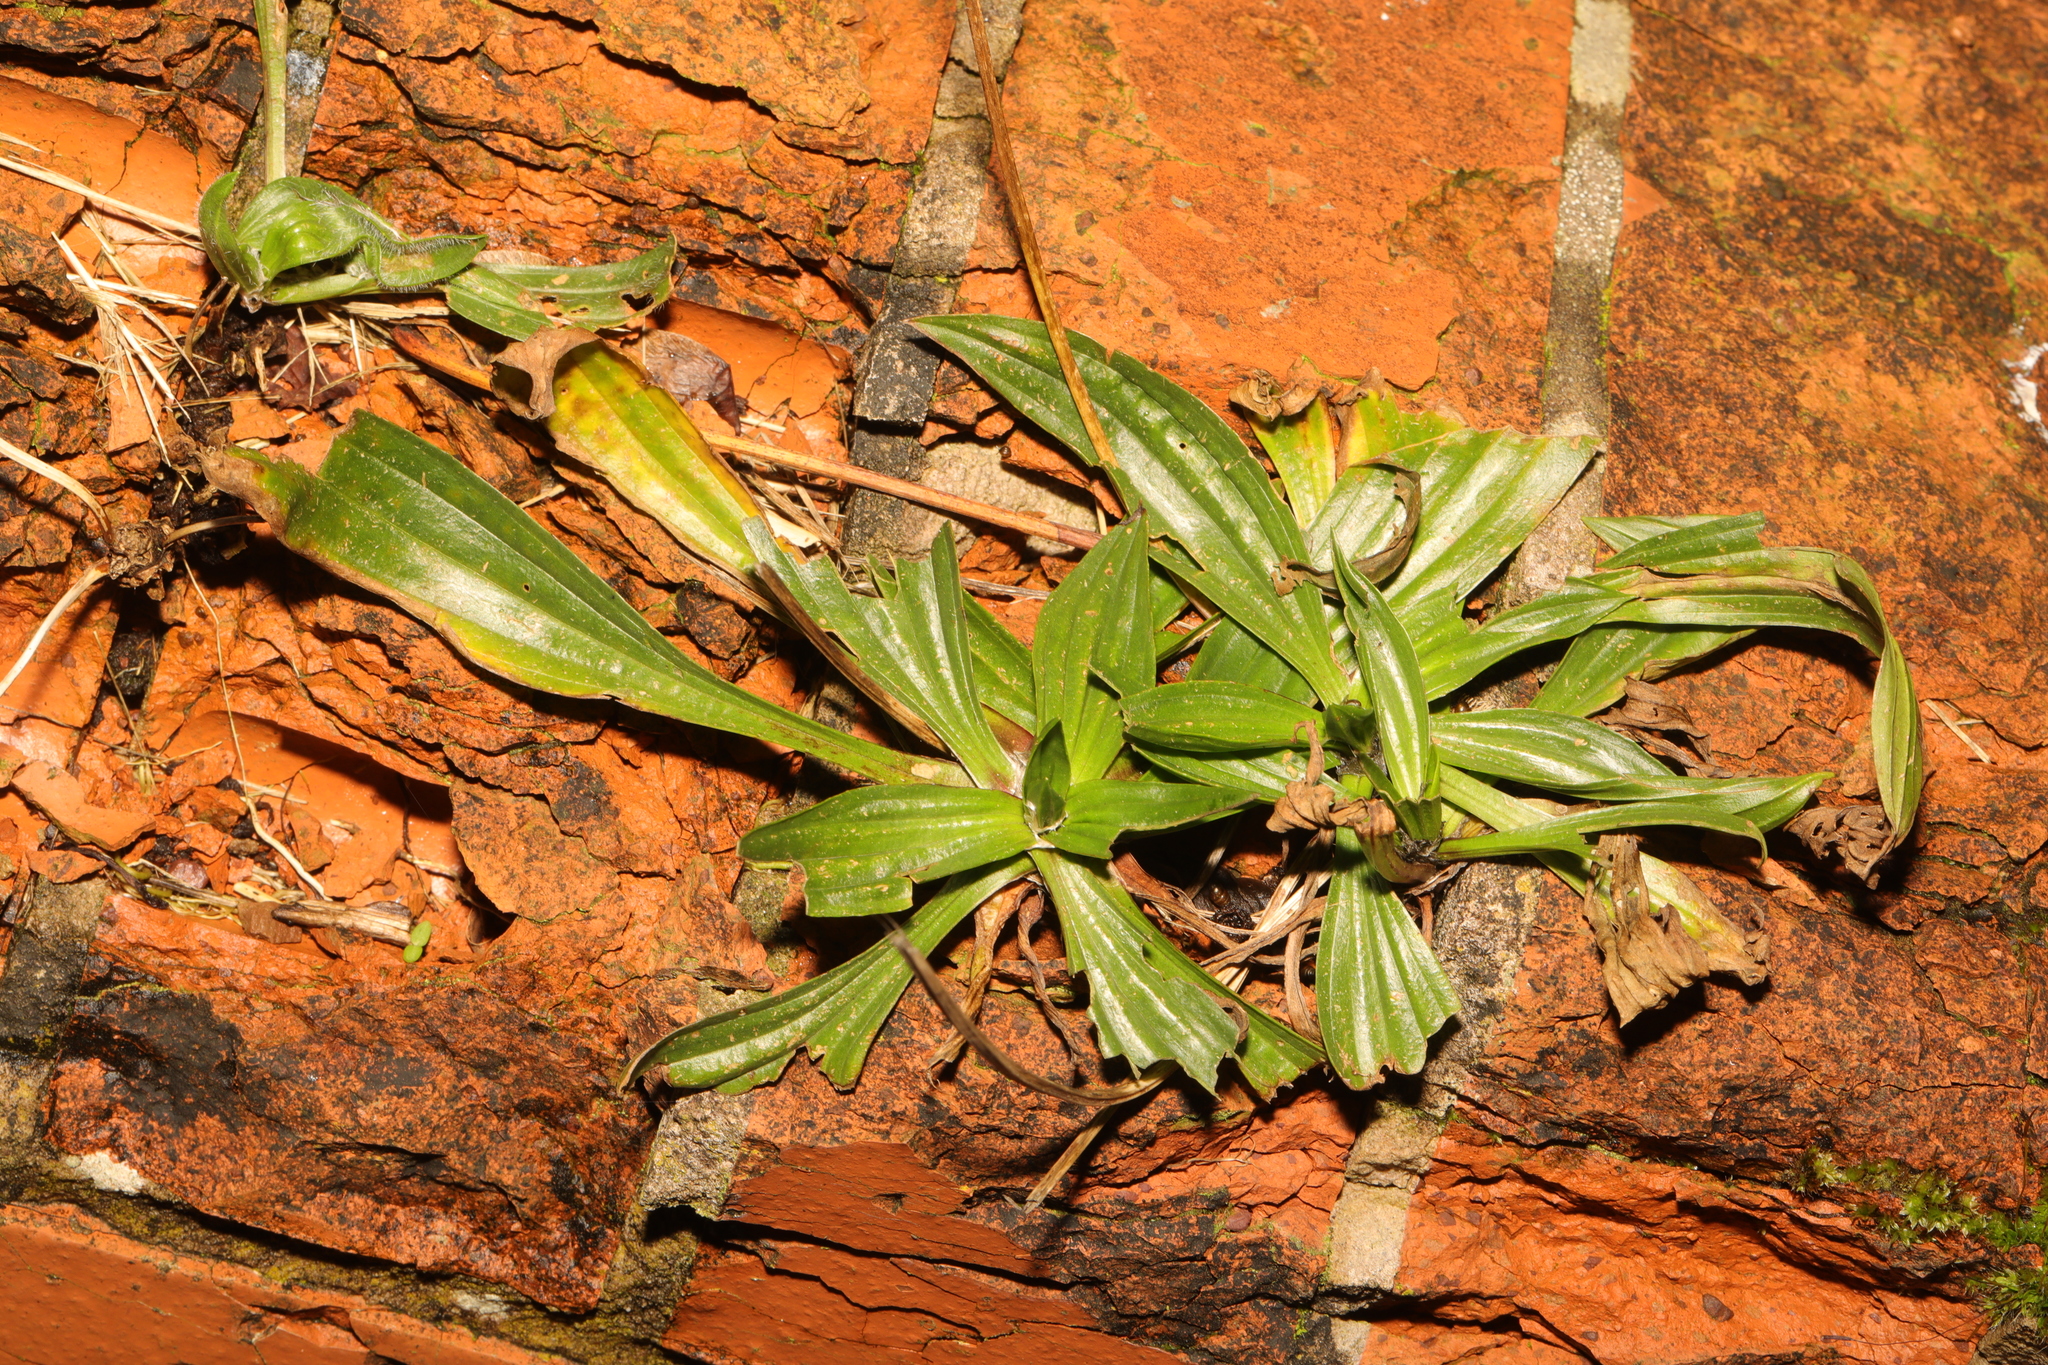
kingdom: Plantae
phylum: Tracheophyta
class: Magnoliopsida
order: Lamiales
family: Plantaginaceae
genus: Plantago
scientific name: Plantago lanceolata
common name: Ribwort plantain
